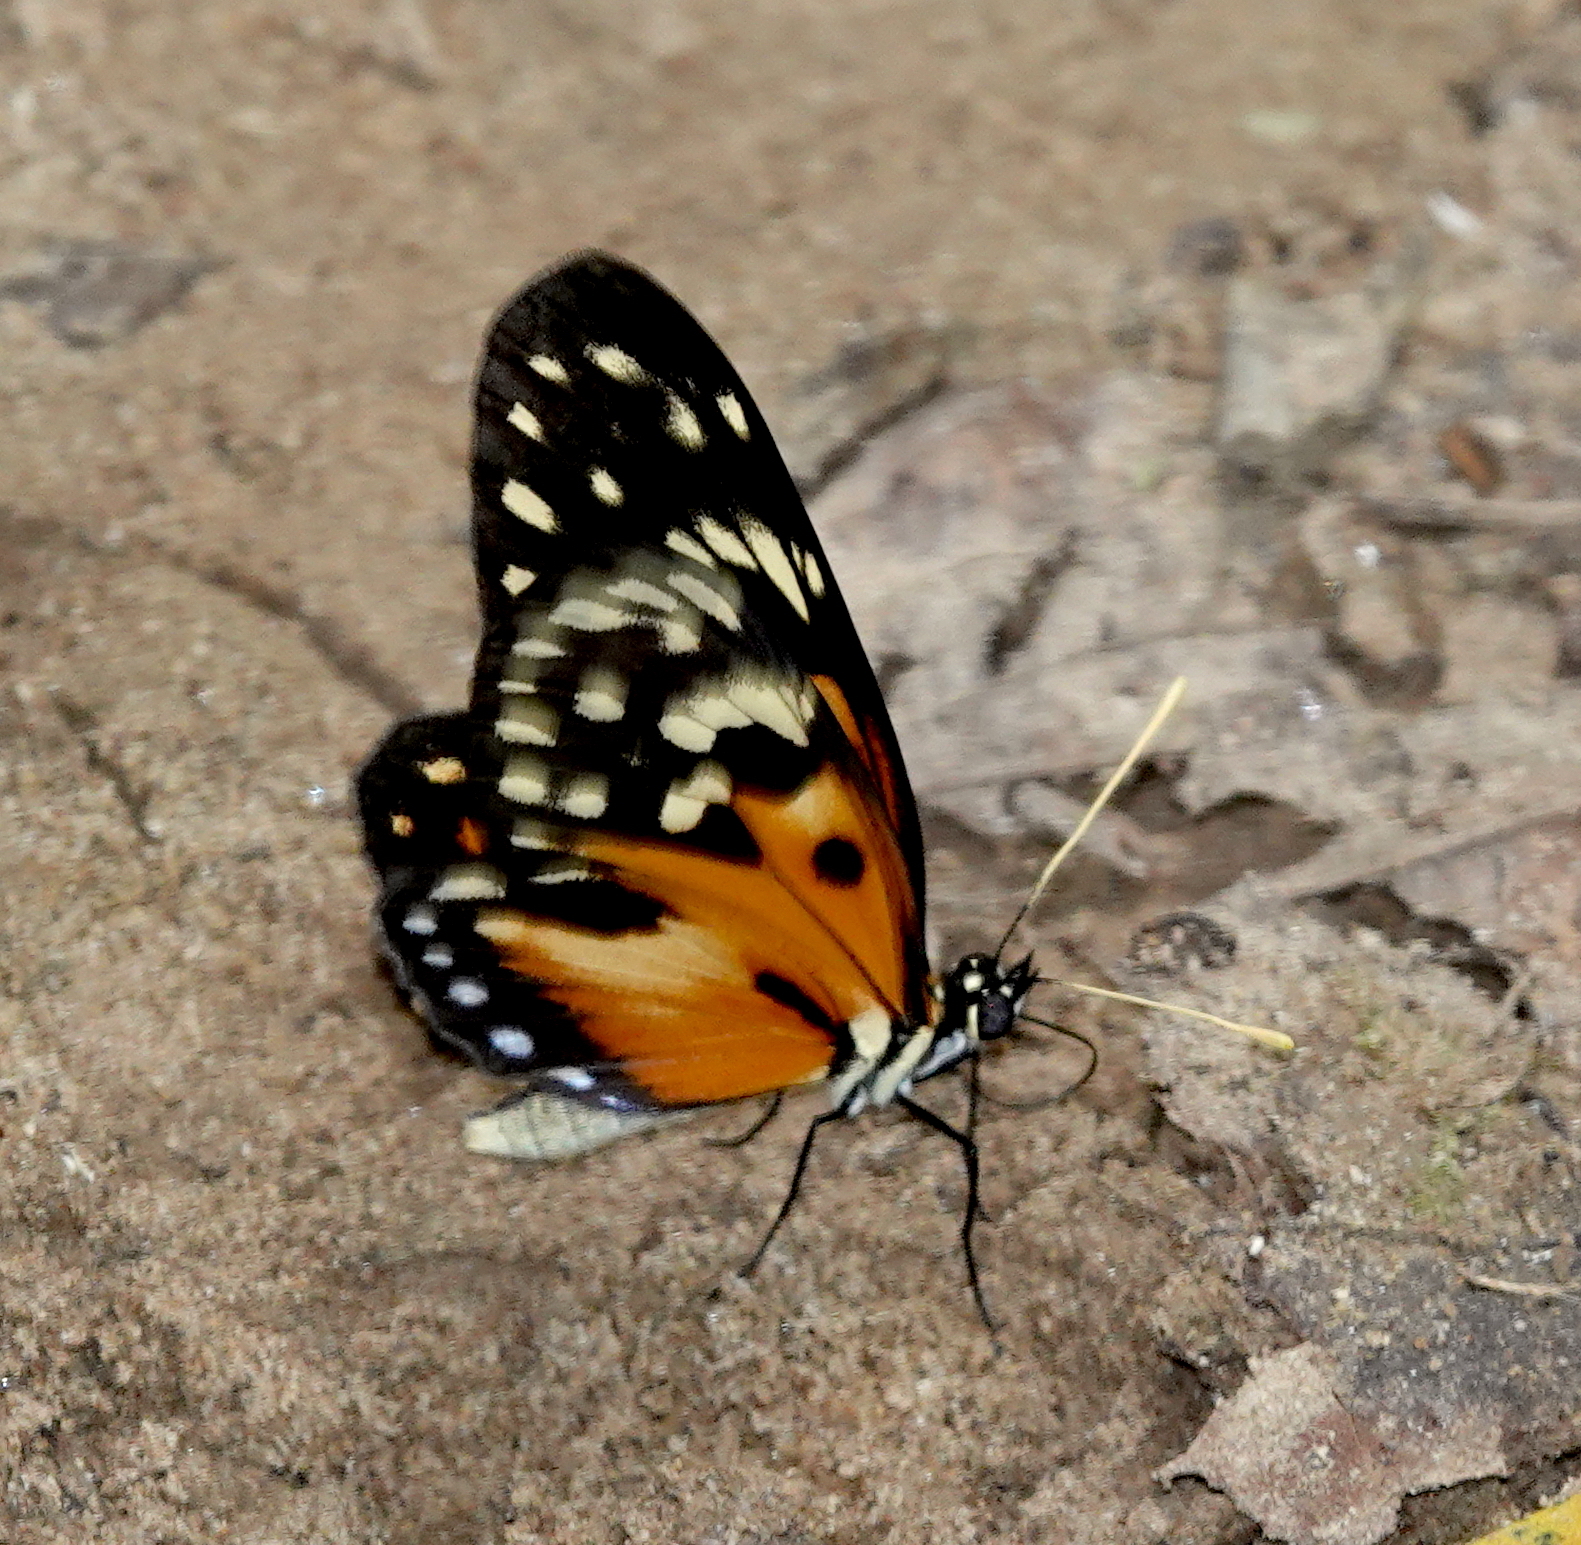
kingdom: Animalia
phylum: Arthropoda
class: Insecta
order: Lepidoptera
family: Nymphalidae
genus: Eresia
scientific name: Eresia ithomioides
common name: Variable crescent
